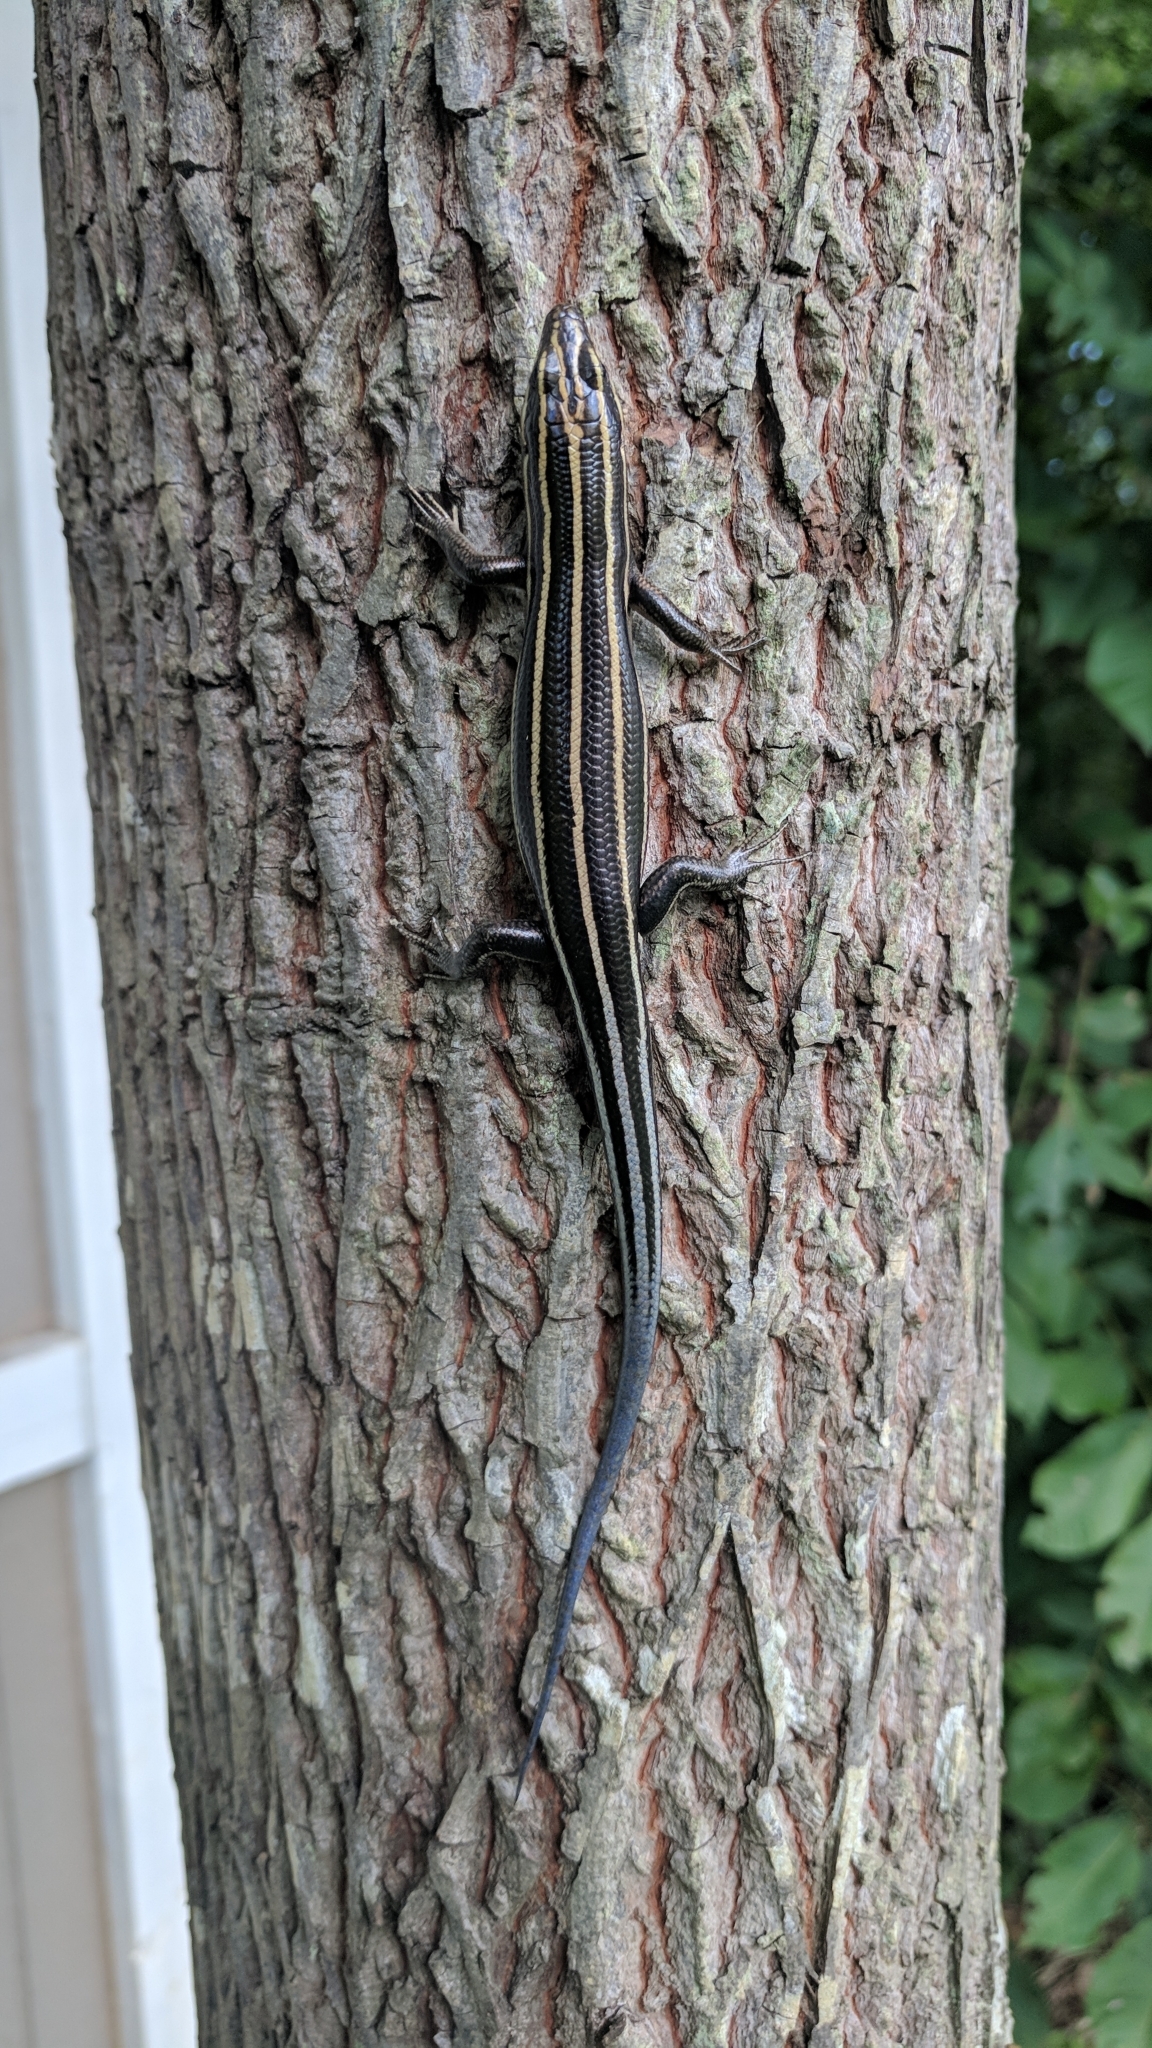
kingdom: Animalia
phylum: Chordata
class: Squamata
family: Scincidae
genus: Plestiodon
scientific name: Plestiodon fasciatus
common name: Five-lined skink
